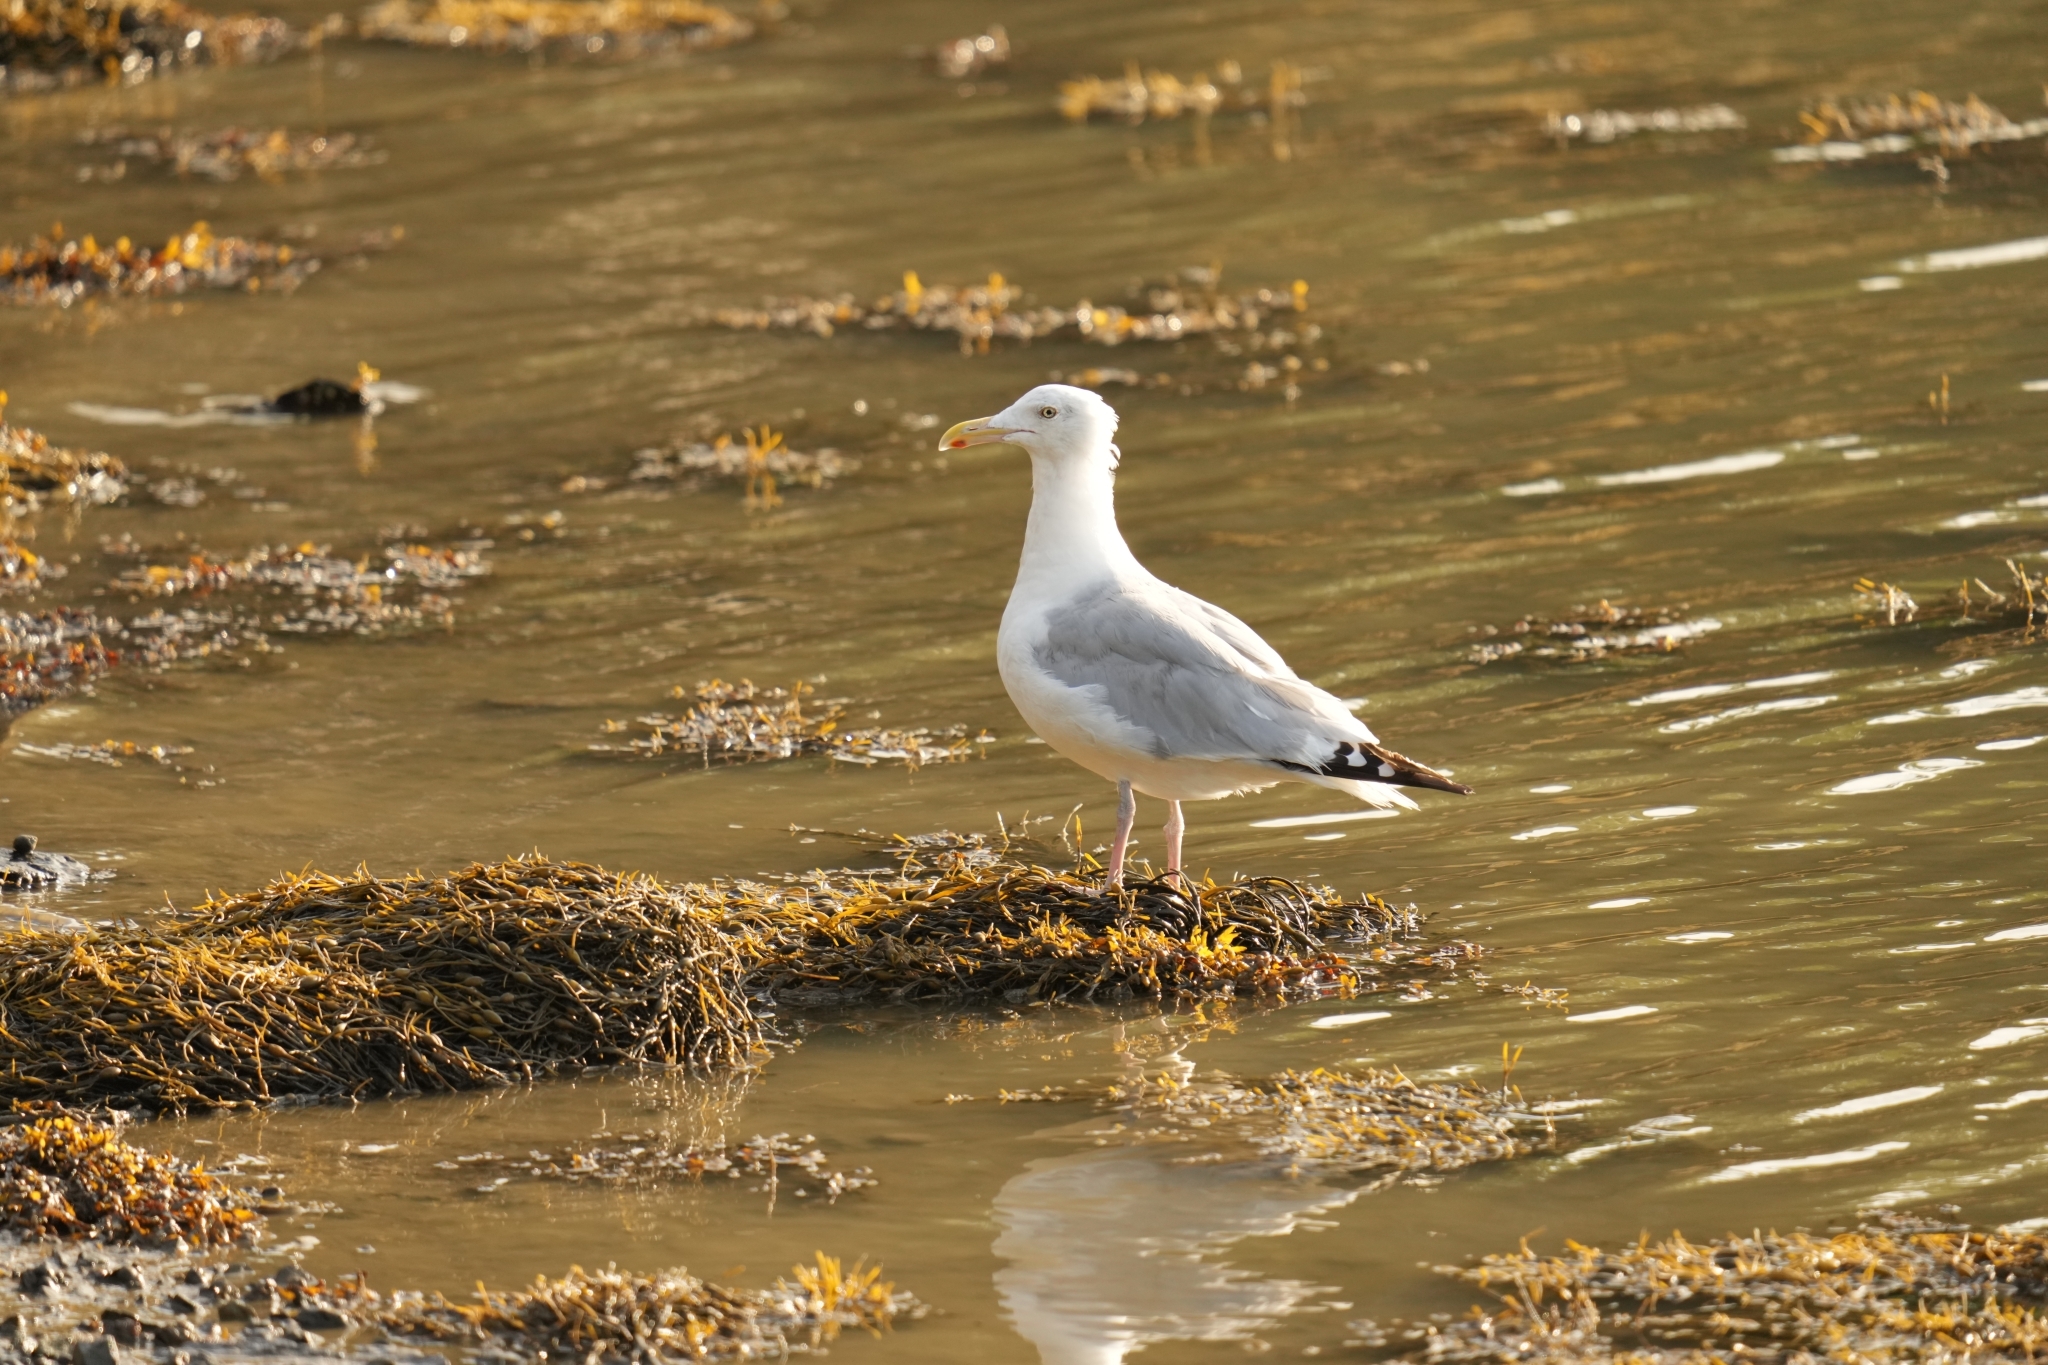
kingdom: Animalia
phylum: Chordata
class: Aves
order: Charadriiformes
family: Laridae
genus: Larus
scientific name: Larus argentatus
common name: Herring gull
